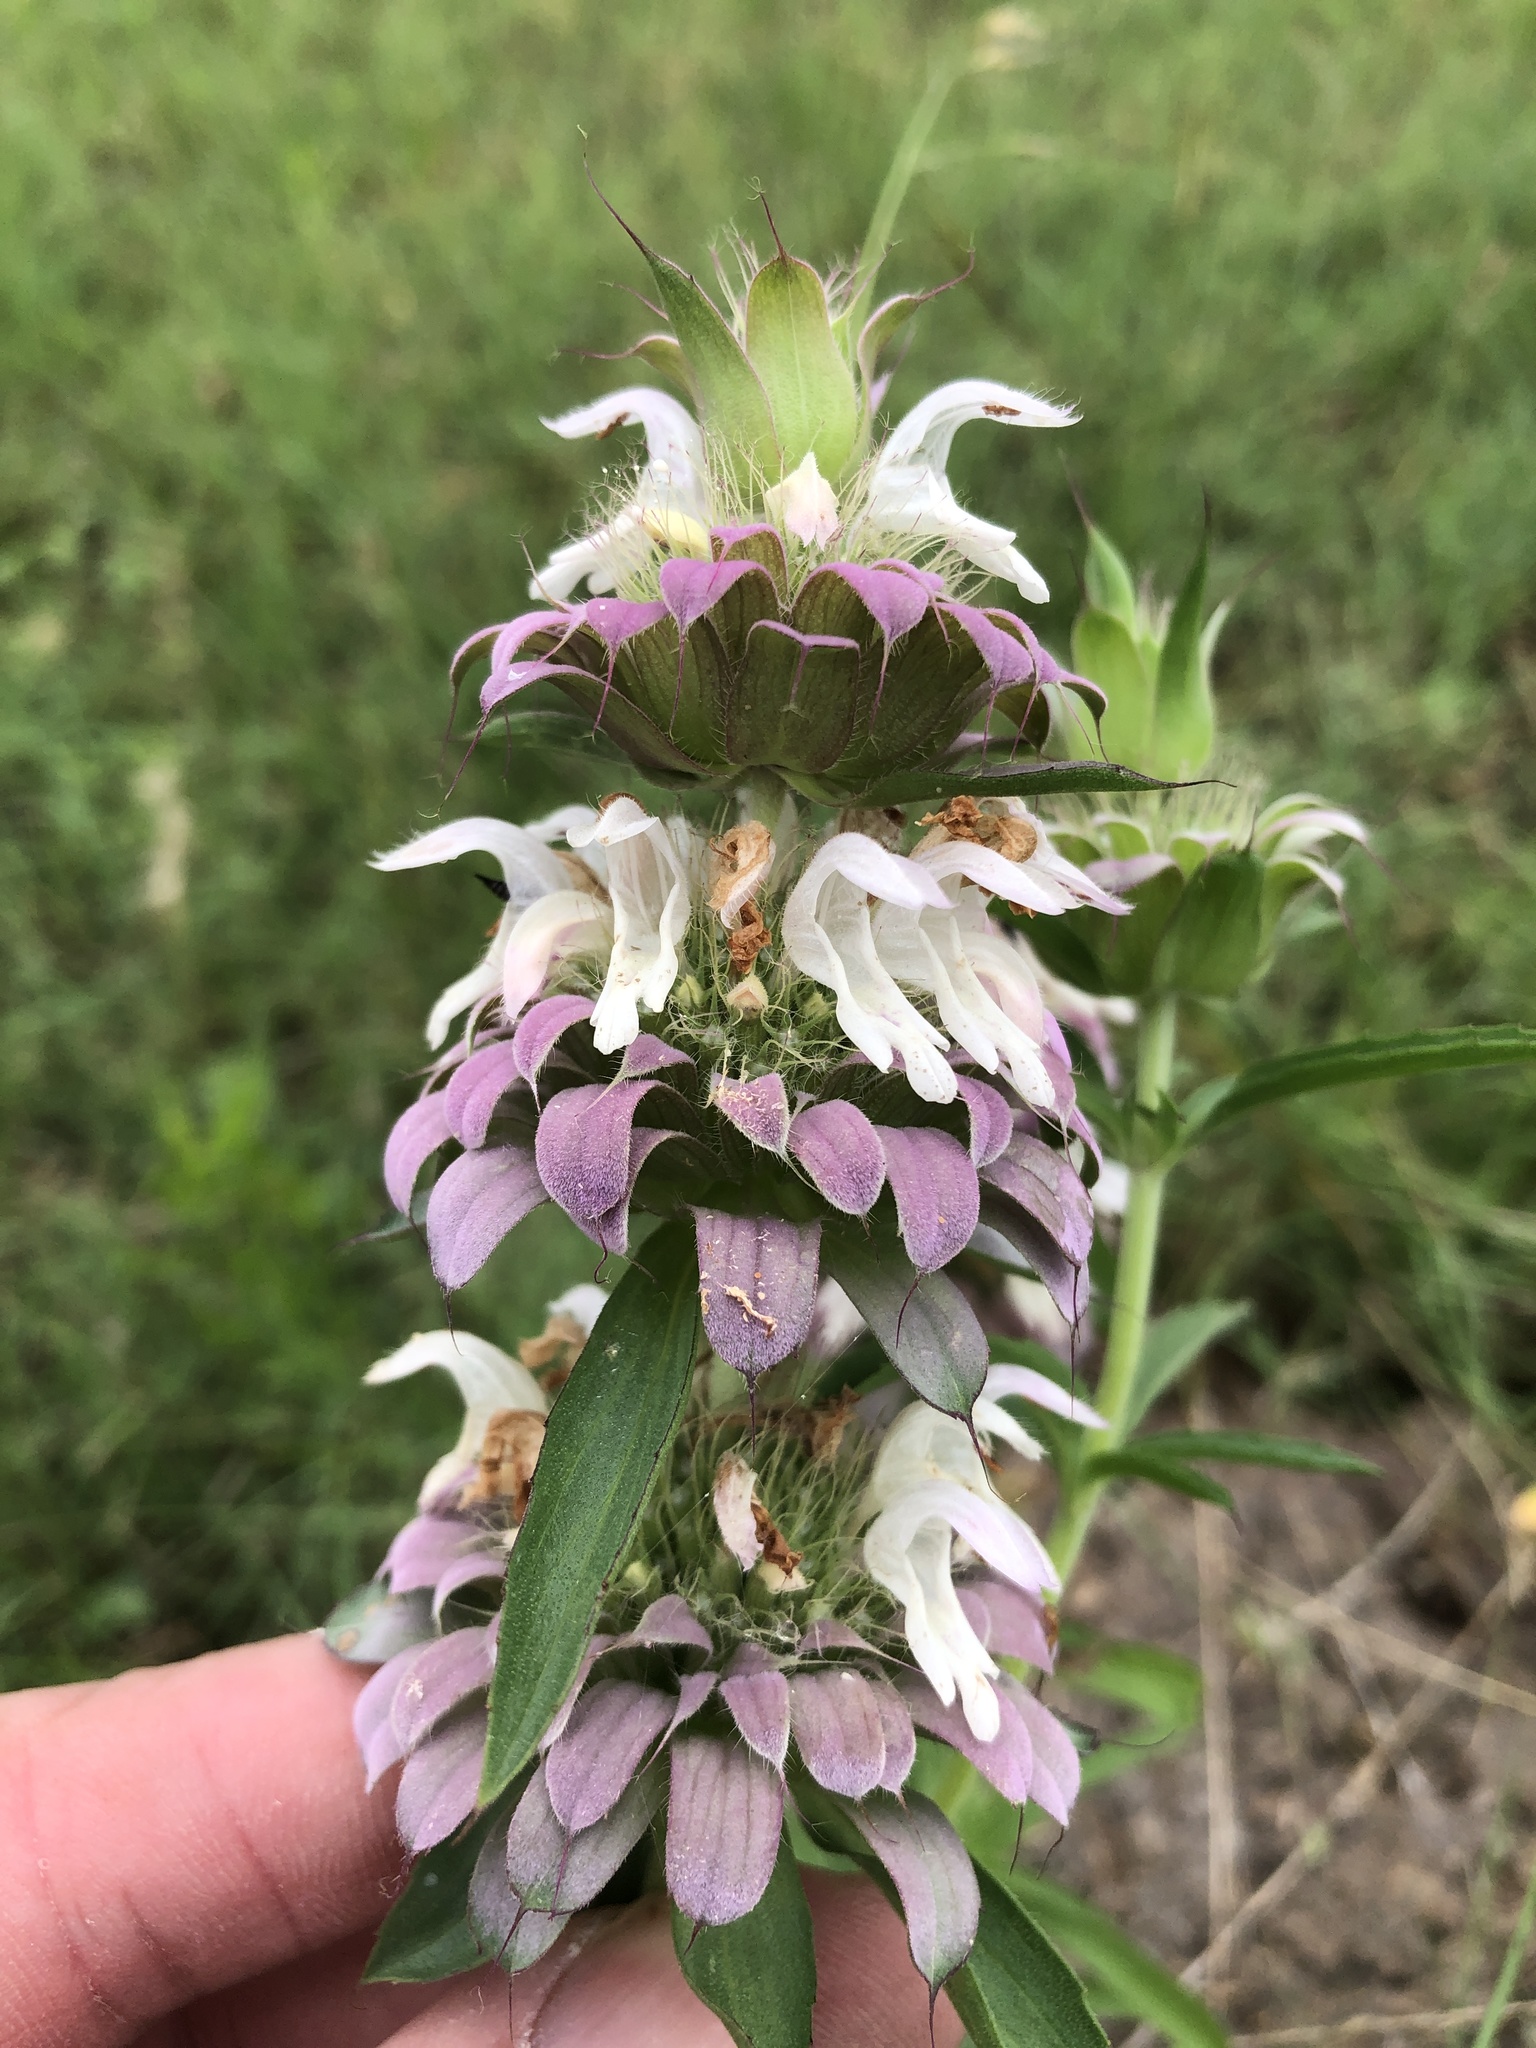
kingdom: Plantae
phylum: Tracheophyta
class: Magnoliopsida
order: Lamiales
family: Lamiaceae
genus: Monarda
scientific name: Monarda citriodora
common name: Lemon beebalm
